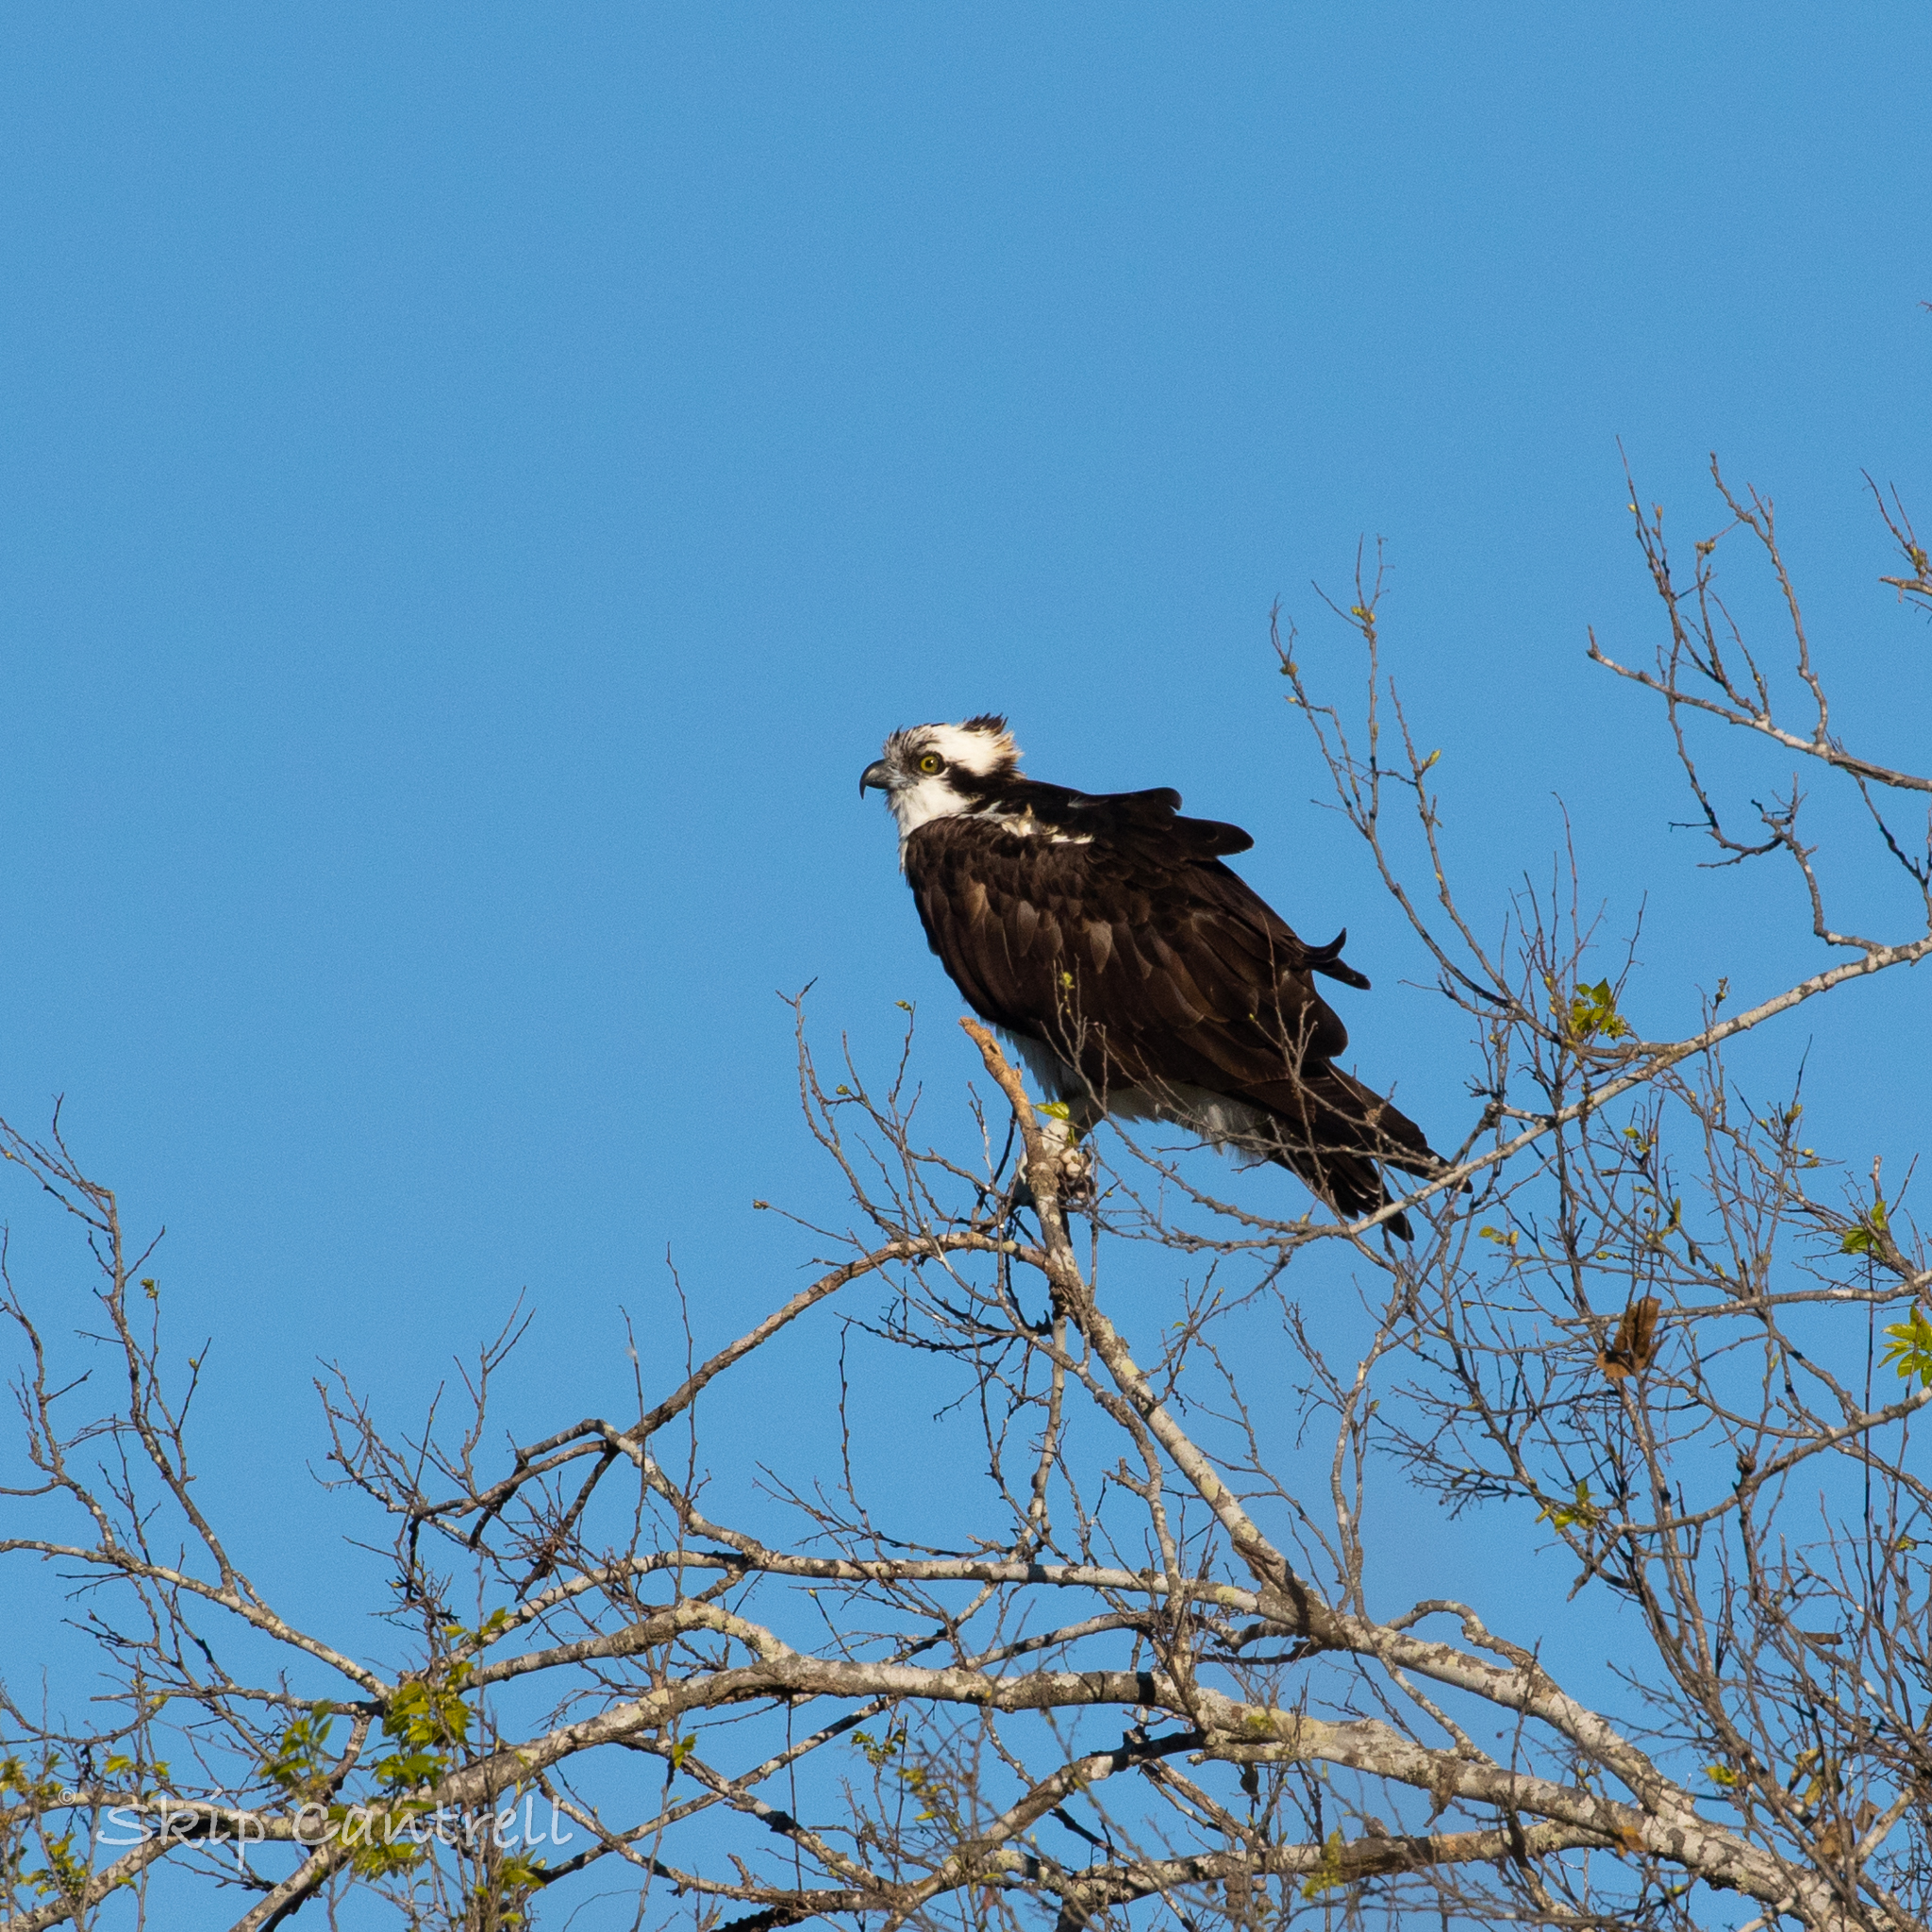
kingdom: Animalia
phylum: Chordata
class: Aves
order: Accipitriformes
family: Pandionidae
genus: Pandion
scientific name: Pandion haliaetus
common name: Osprey
